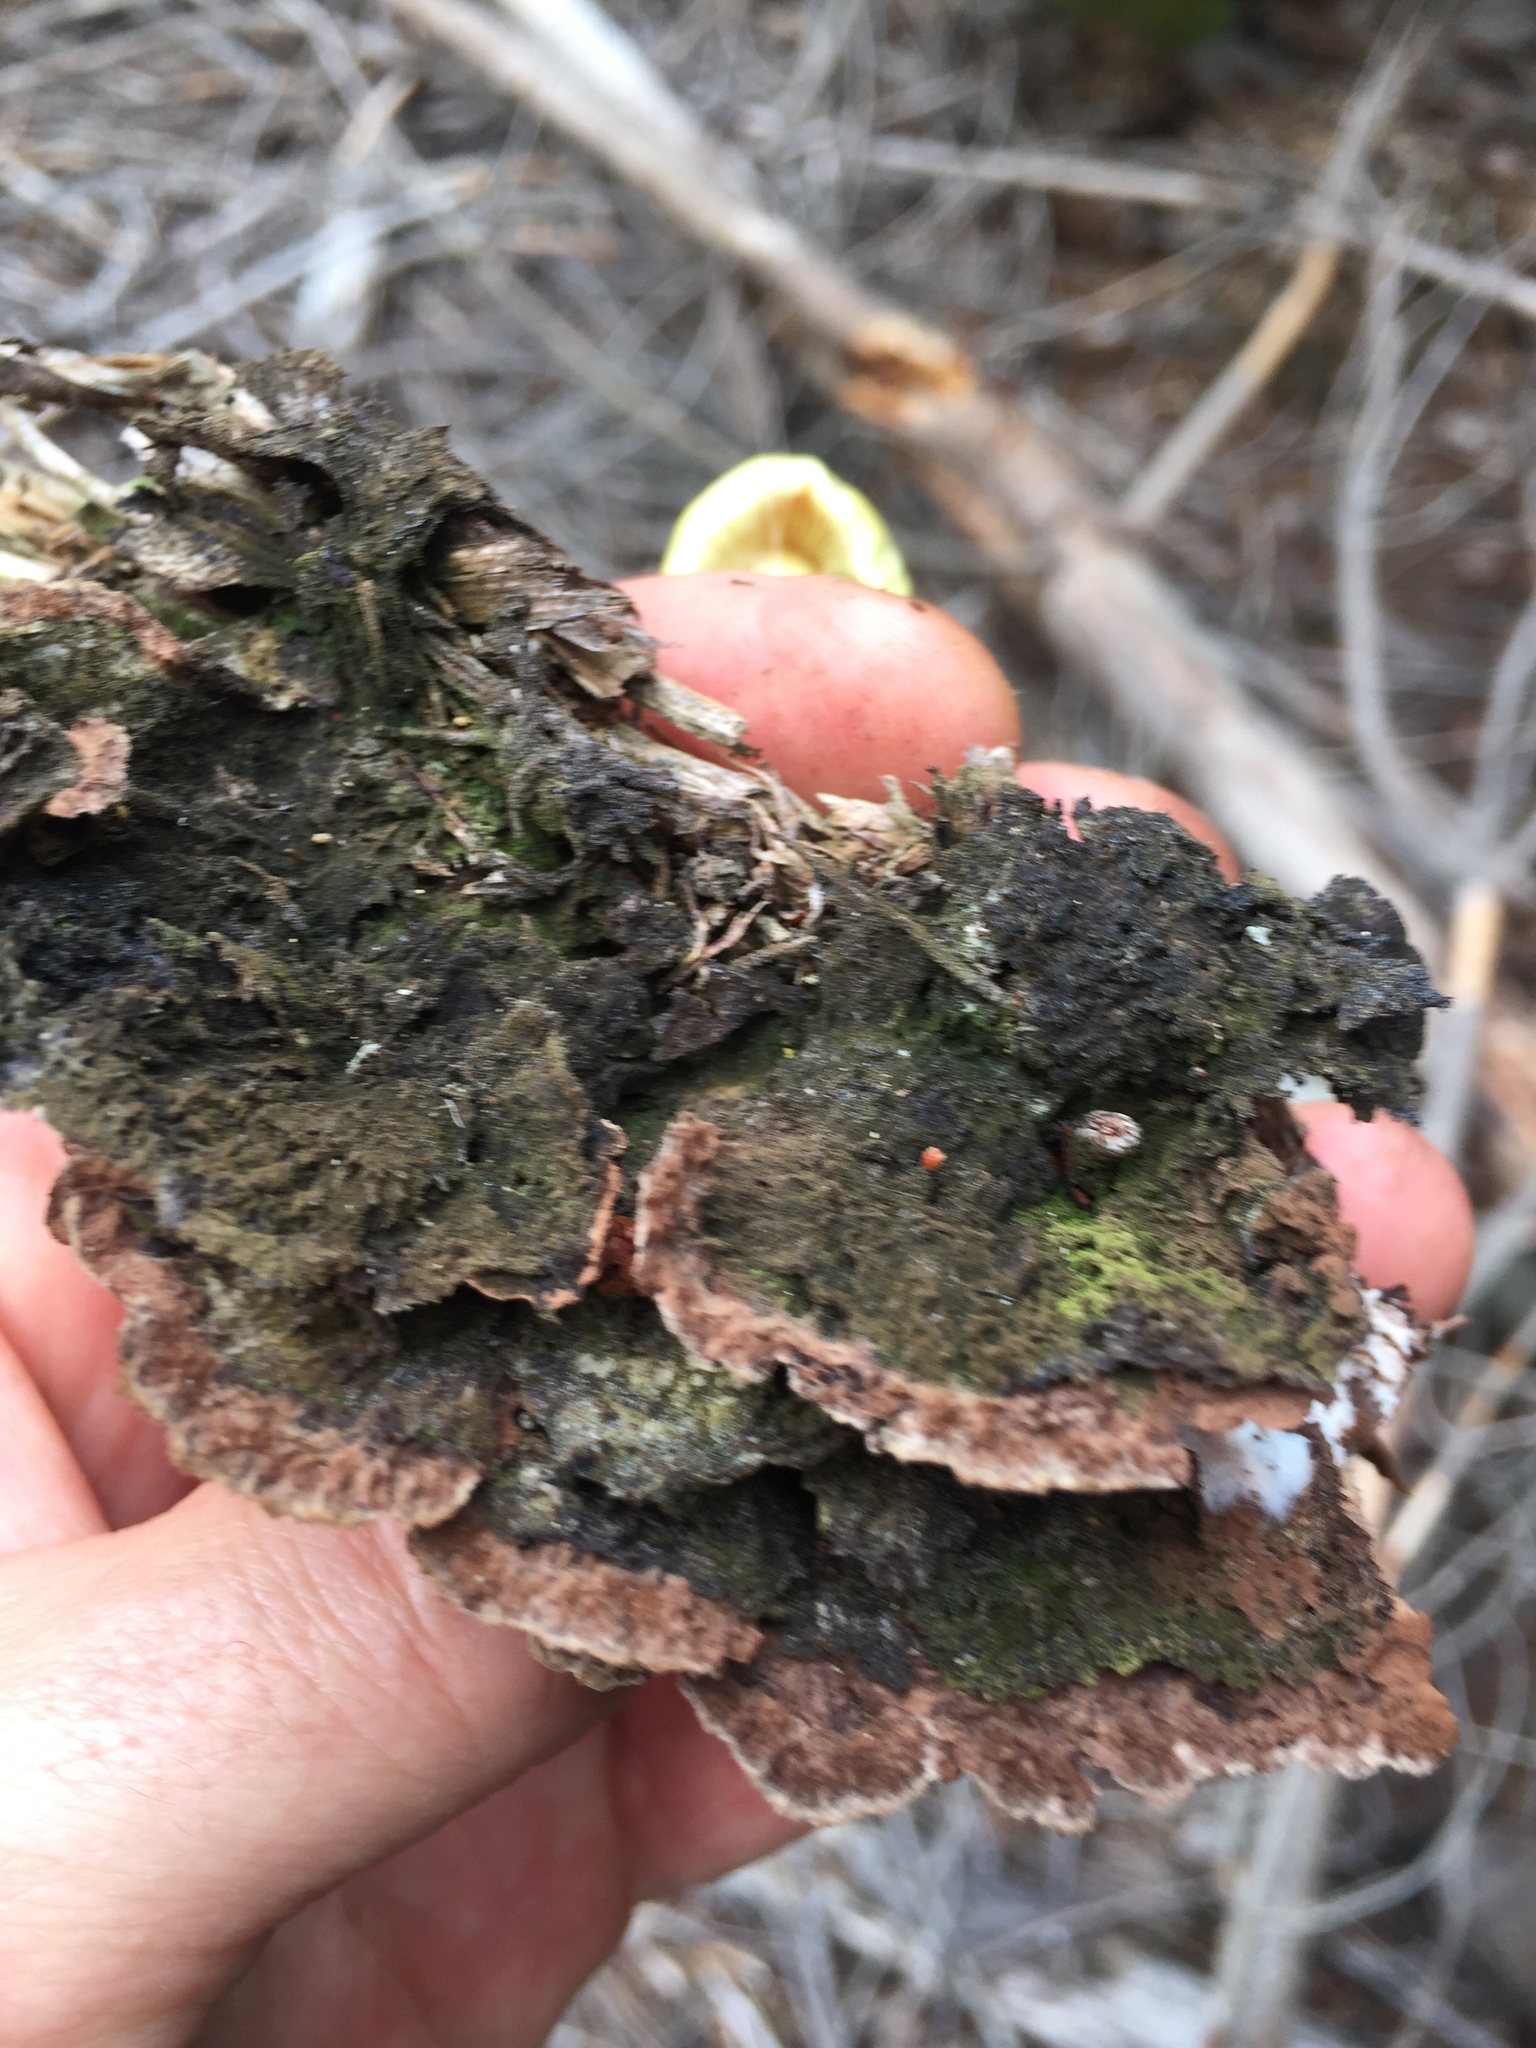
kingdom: Fungi
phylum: Basidiomycota
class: Agaricomycetes
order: Thelephorales
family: Thelephoraceae
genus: Thelephora
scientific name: Thelephora terrestris
